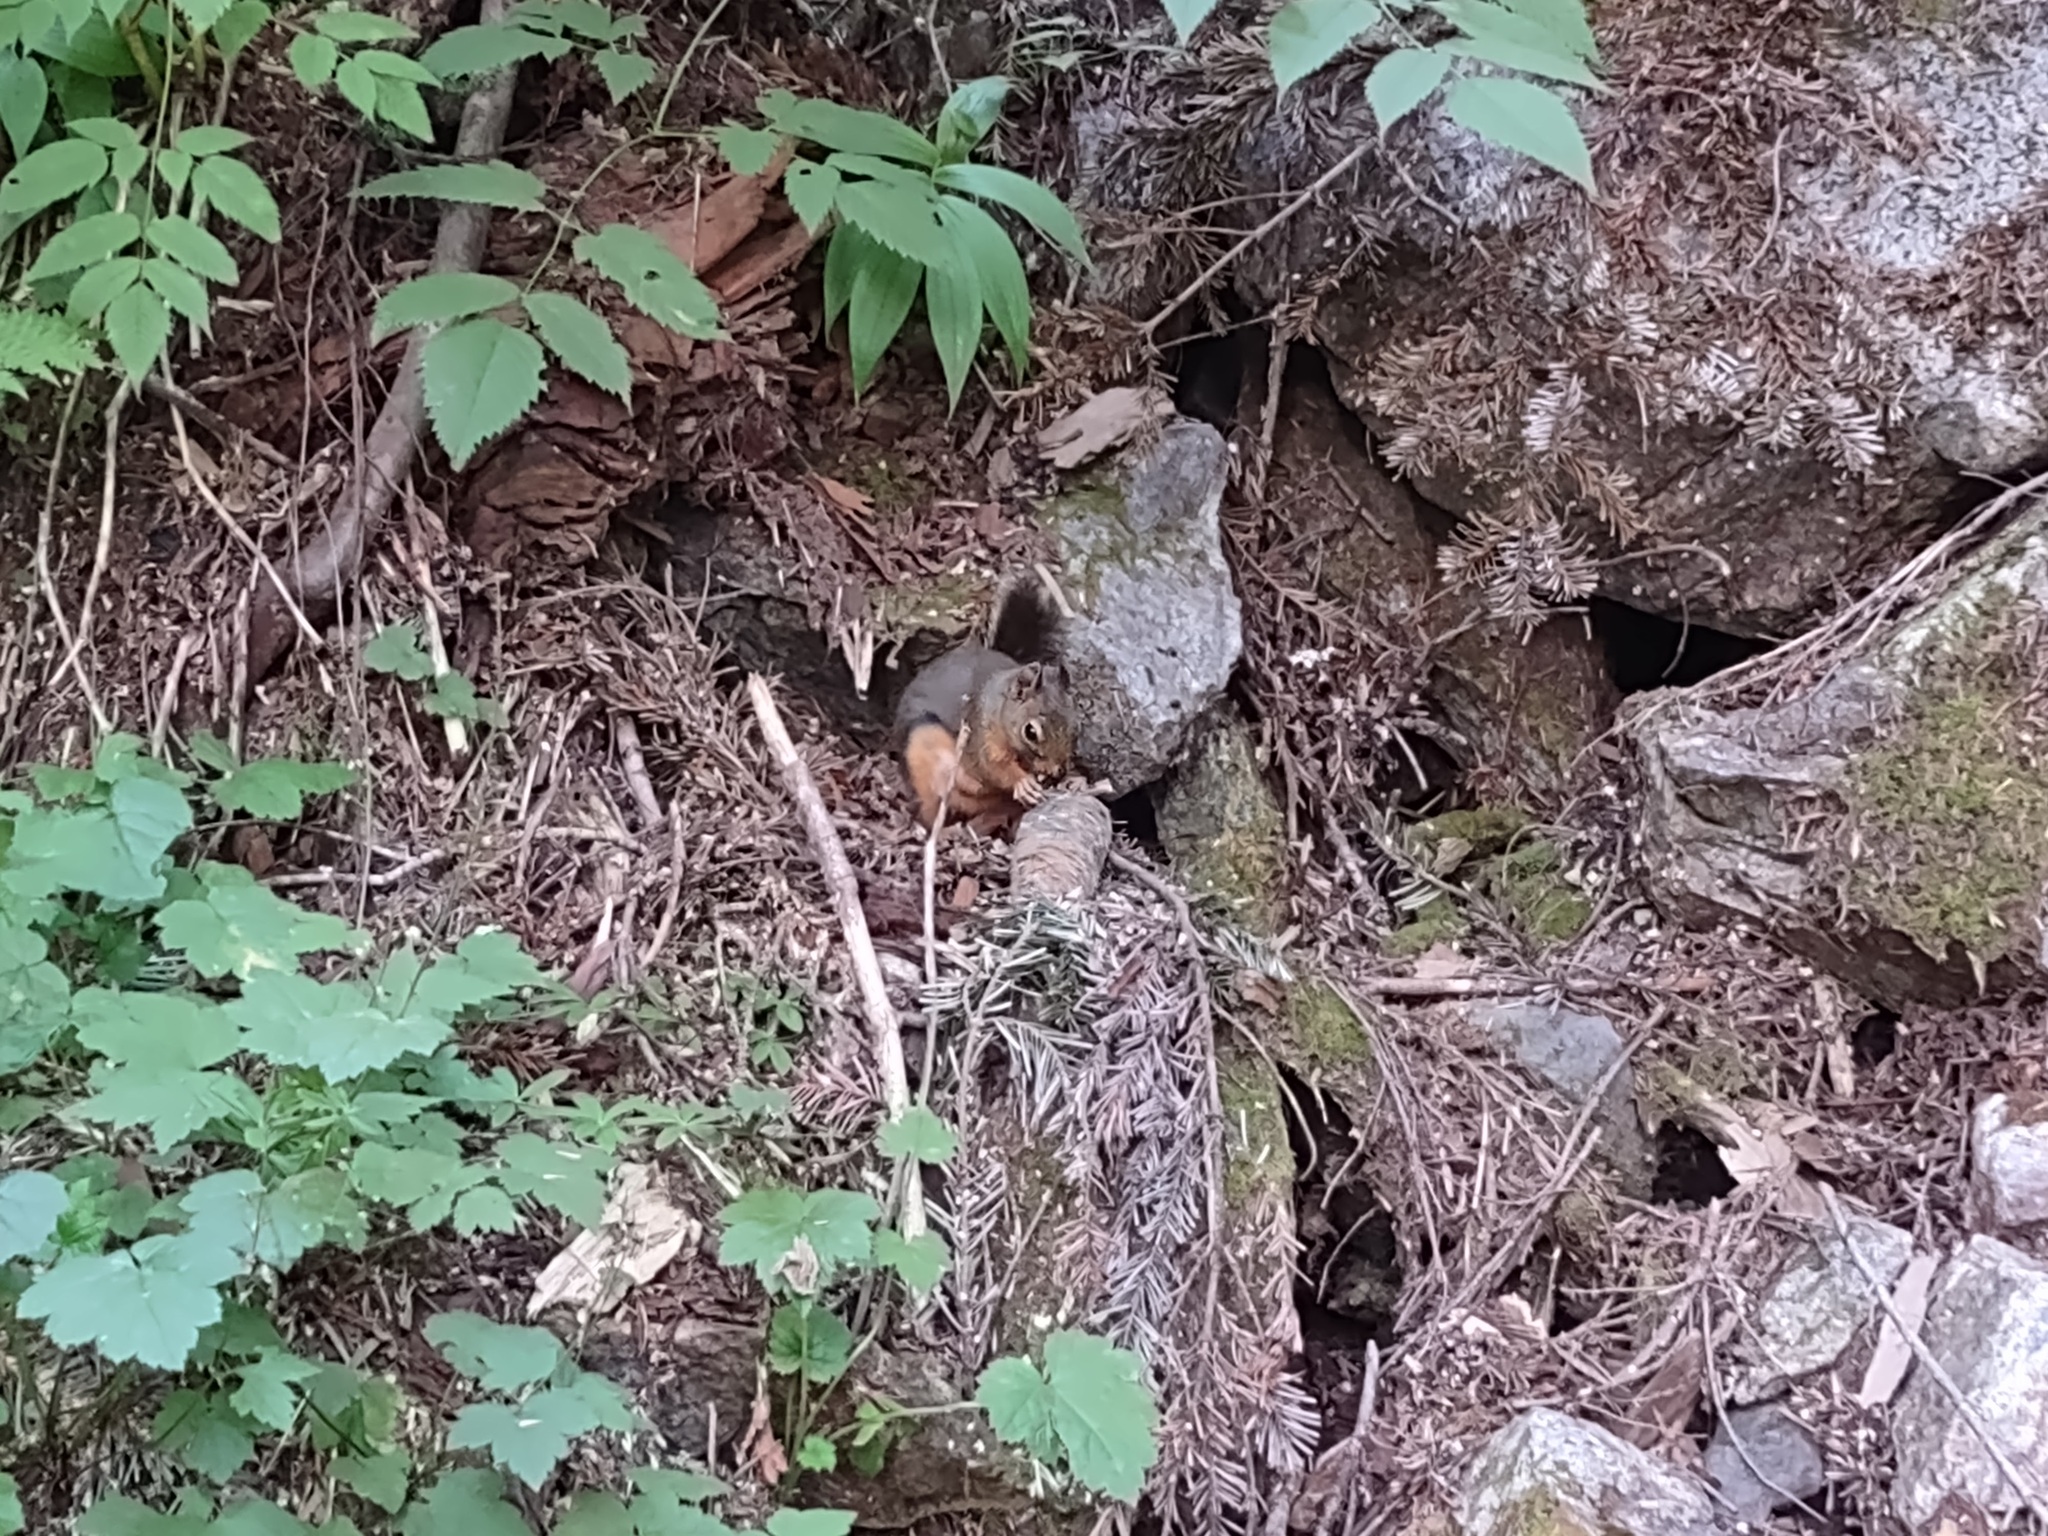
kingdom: Animalia
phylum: Chordata
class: Mammalia
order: Rodentia
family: Sciuridae
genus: Tamiasciurus
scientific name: Tamiasciurus douglasii
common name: Douglas's squirrel
